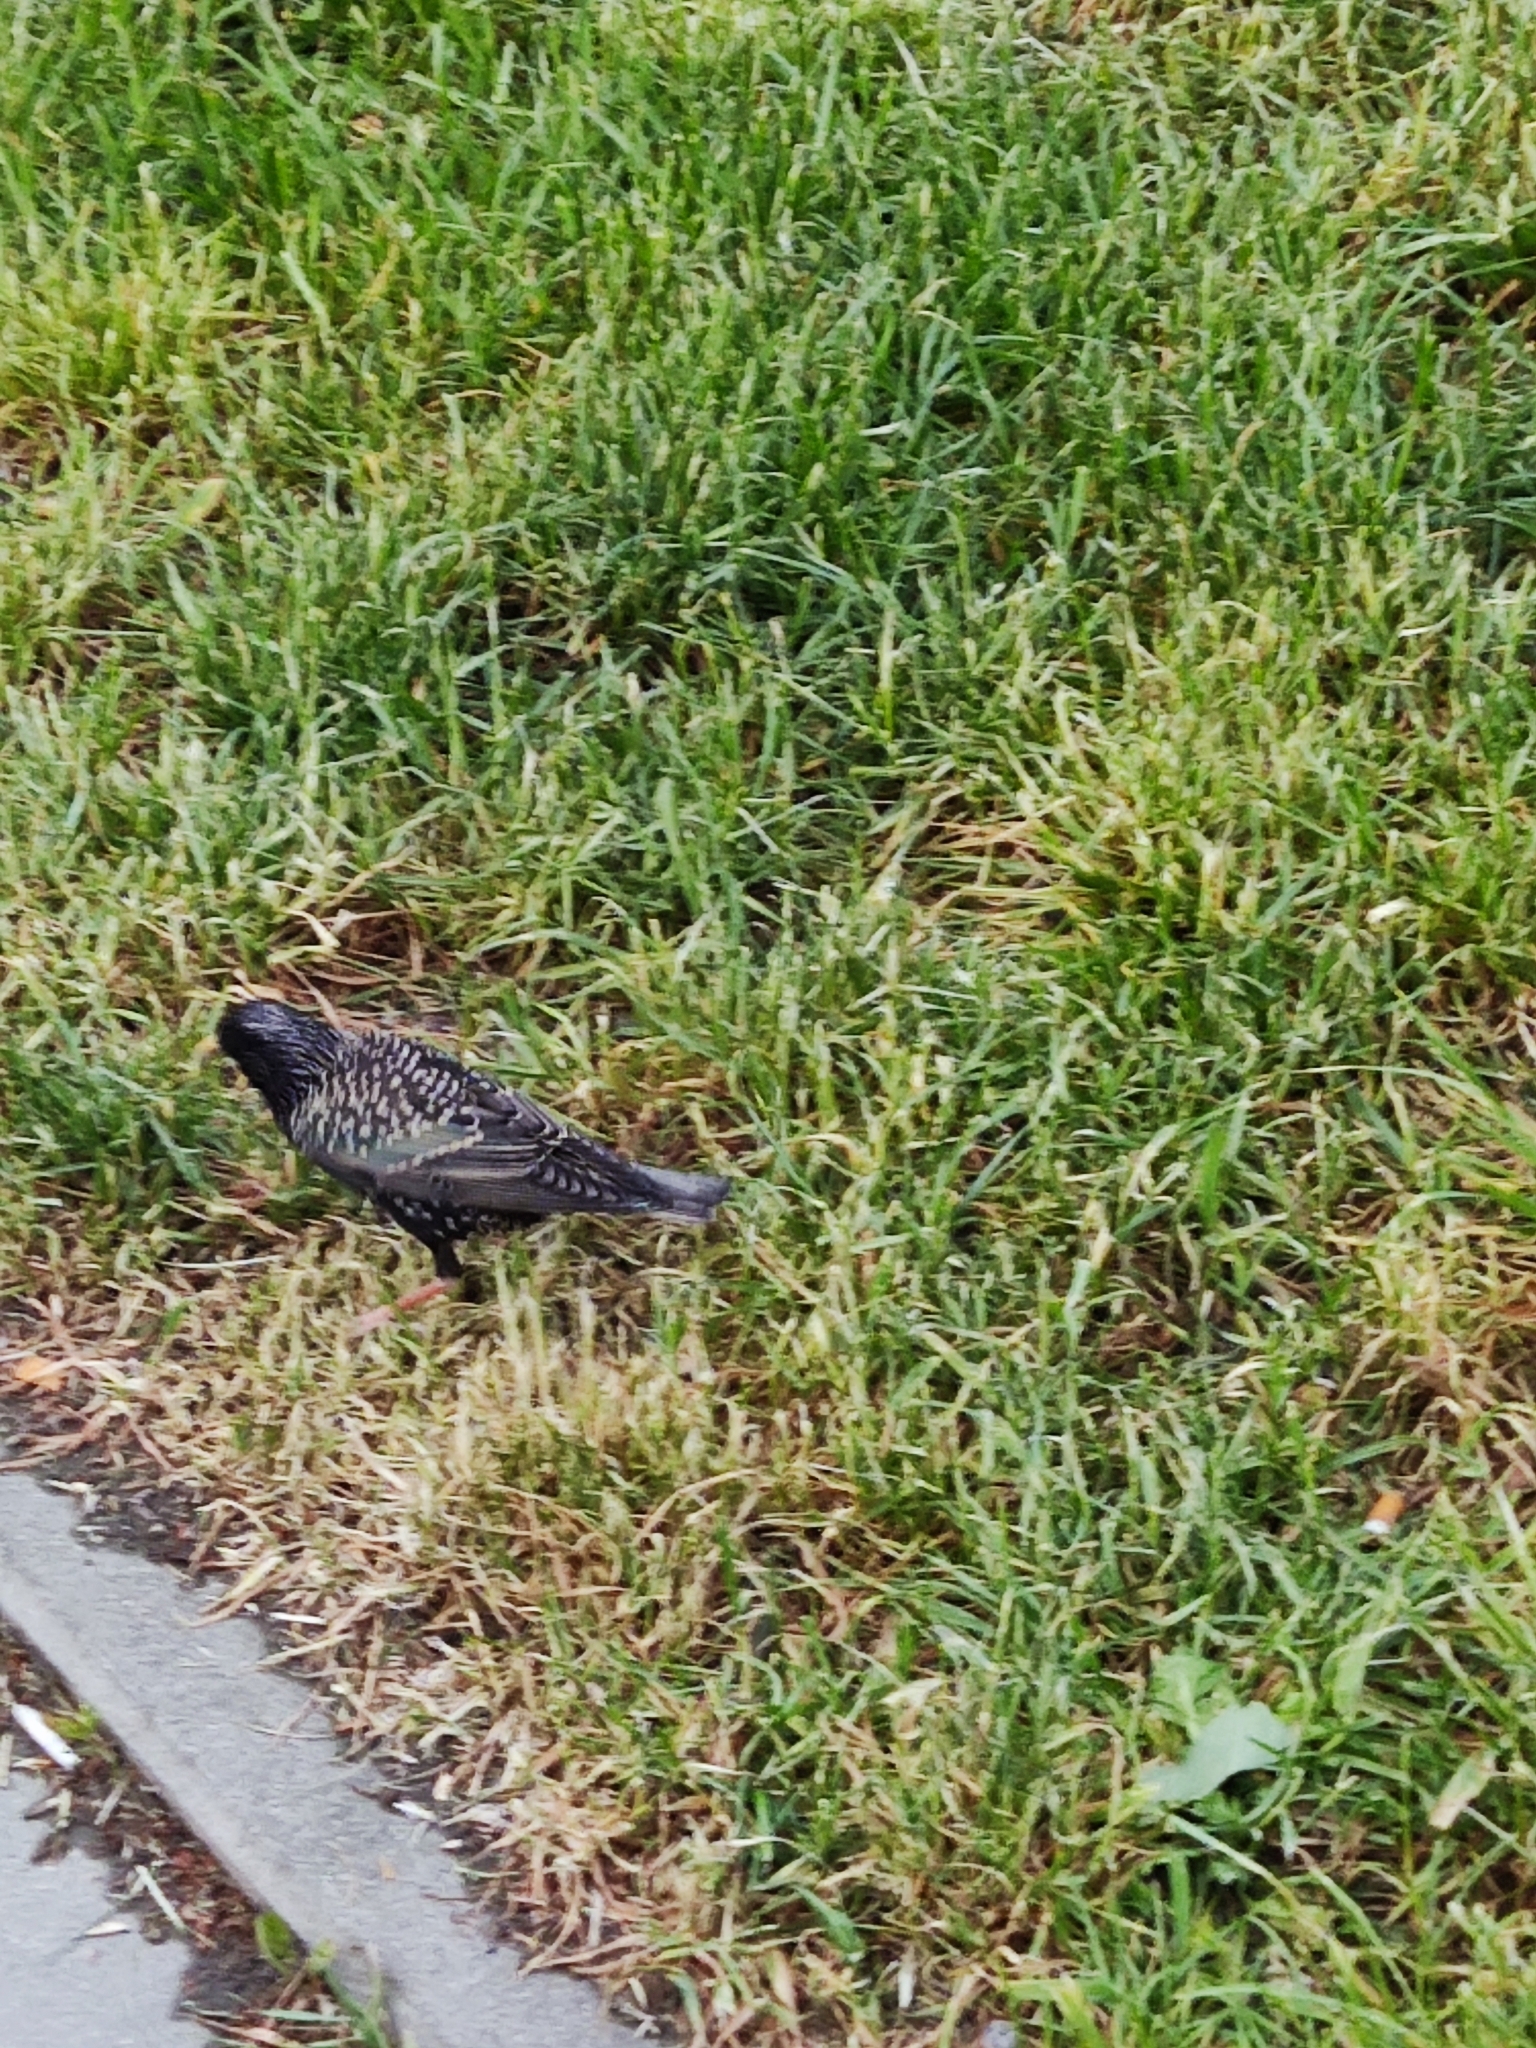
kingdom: Animalia
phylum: Chordata
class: Aves
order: Passeriformes
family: Sturnidae
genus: Sturnus
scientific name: Sturnus vulgaris
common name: Common starling
